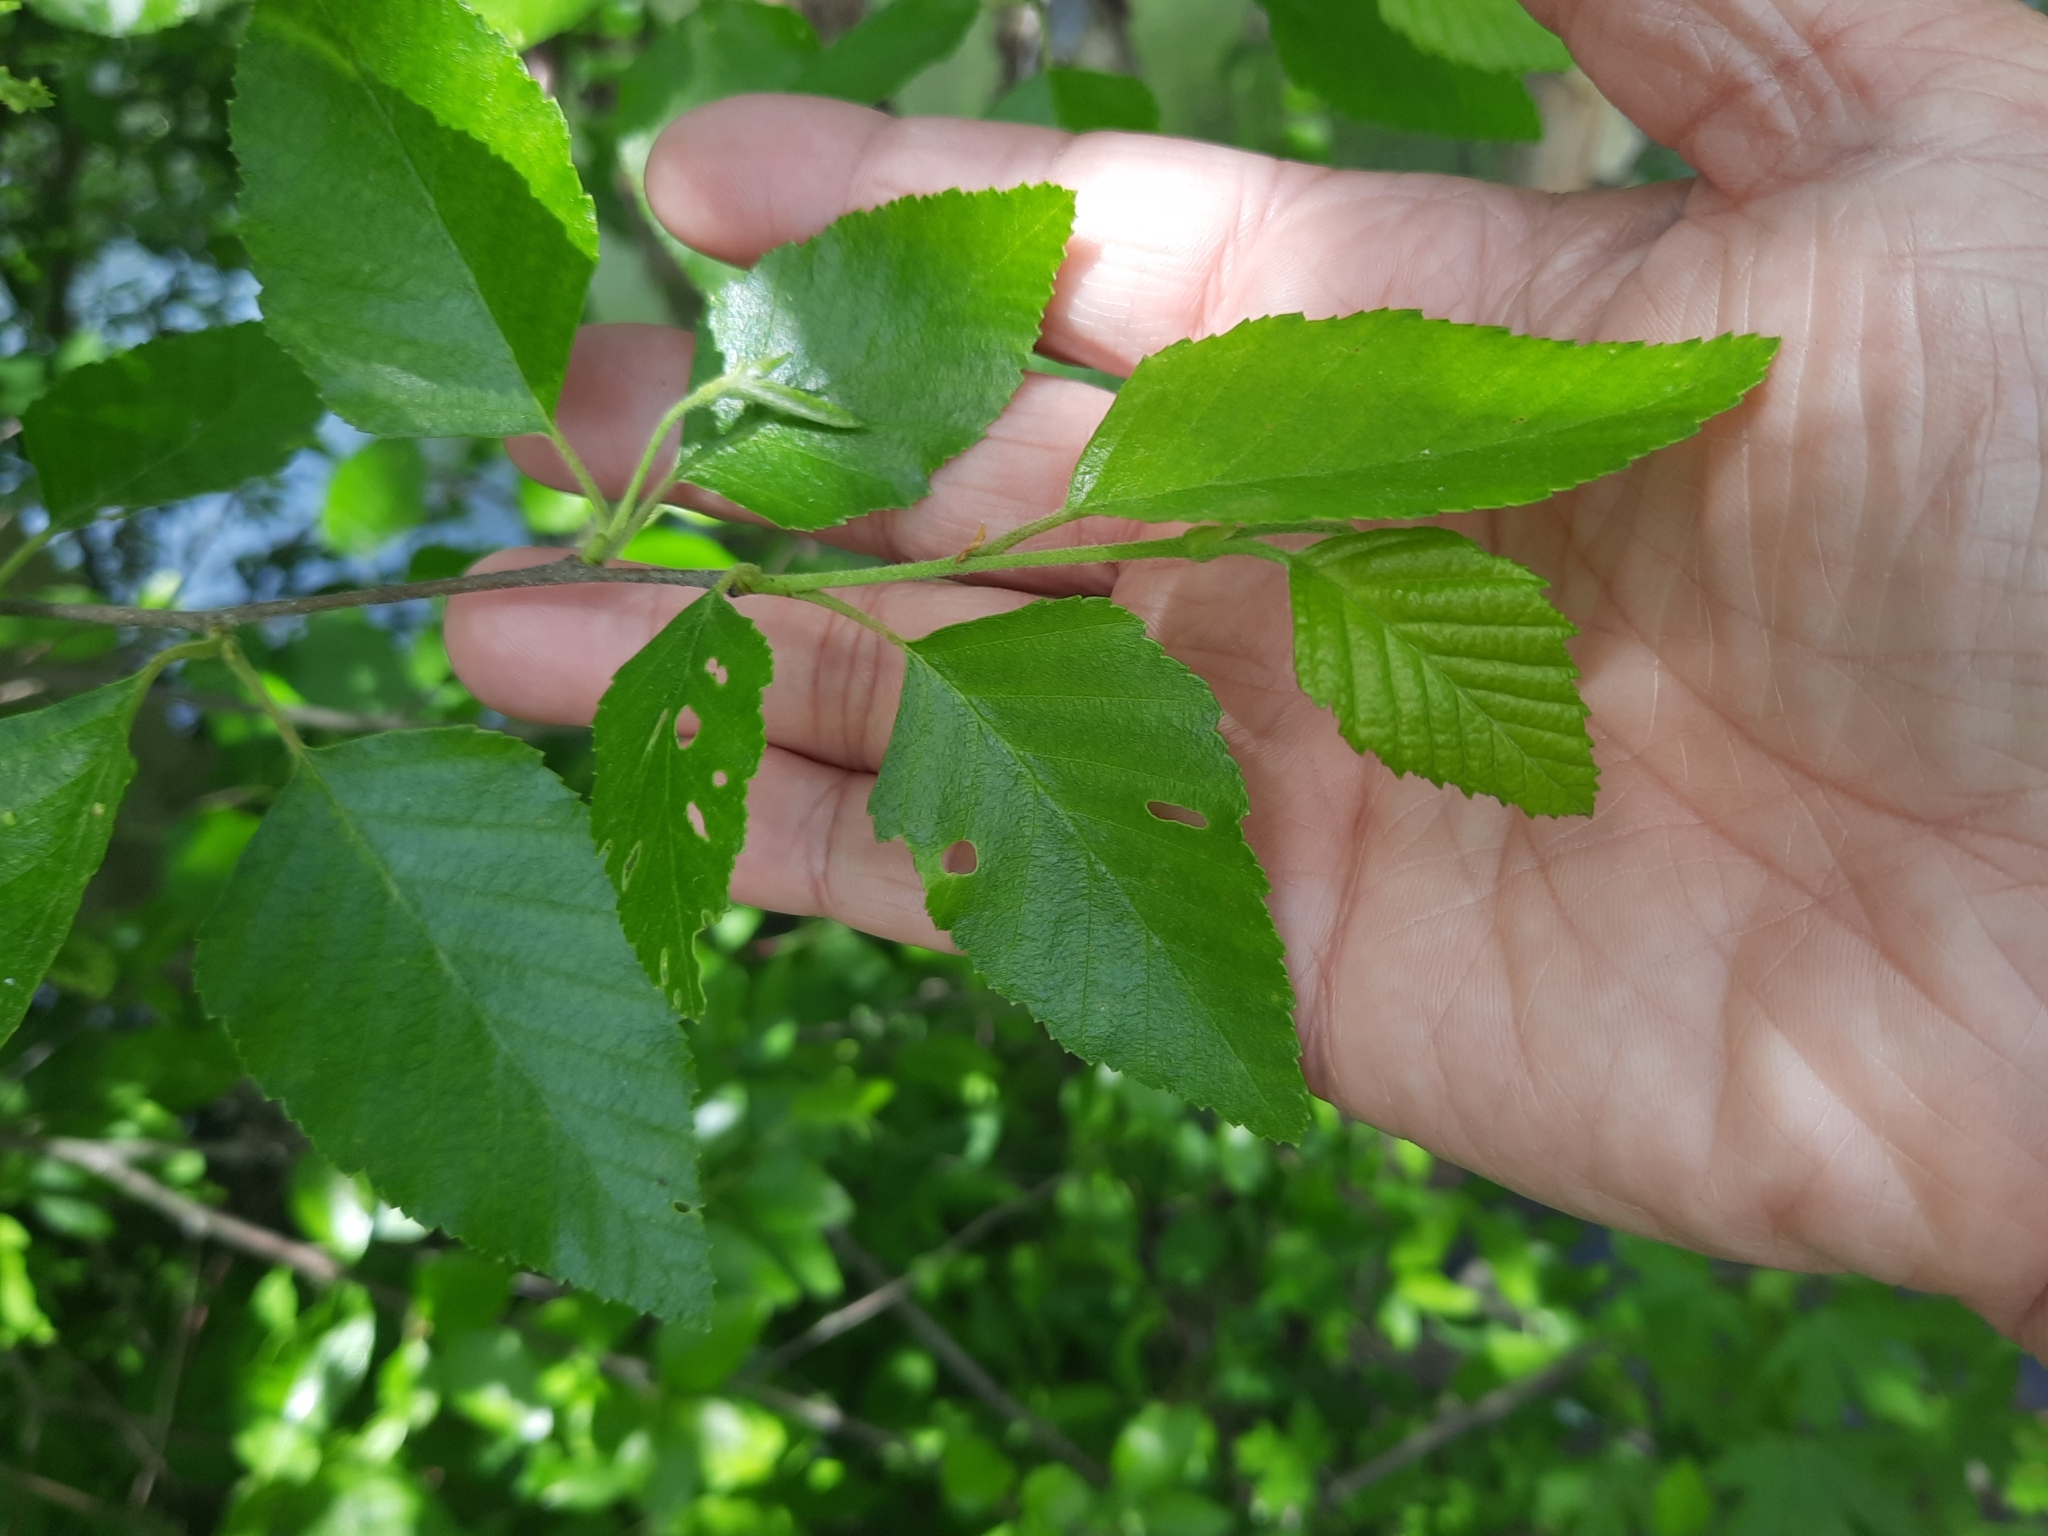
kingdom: Plantae
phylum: Tracheophyta
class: Magnoliopsida
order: Fagales
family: Betulaceae
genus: Betula
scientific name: Betula nigra
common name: Black birch
